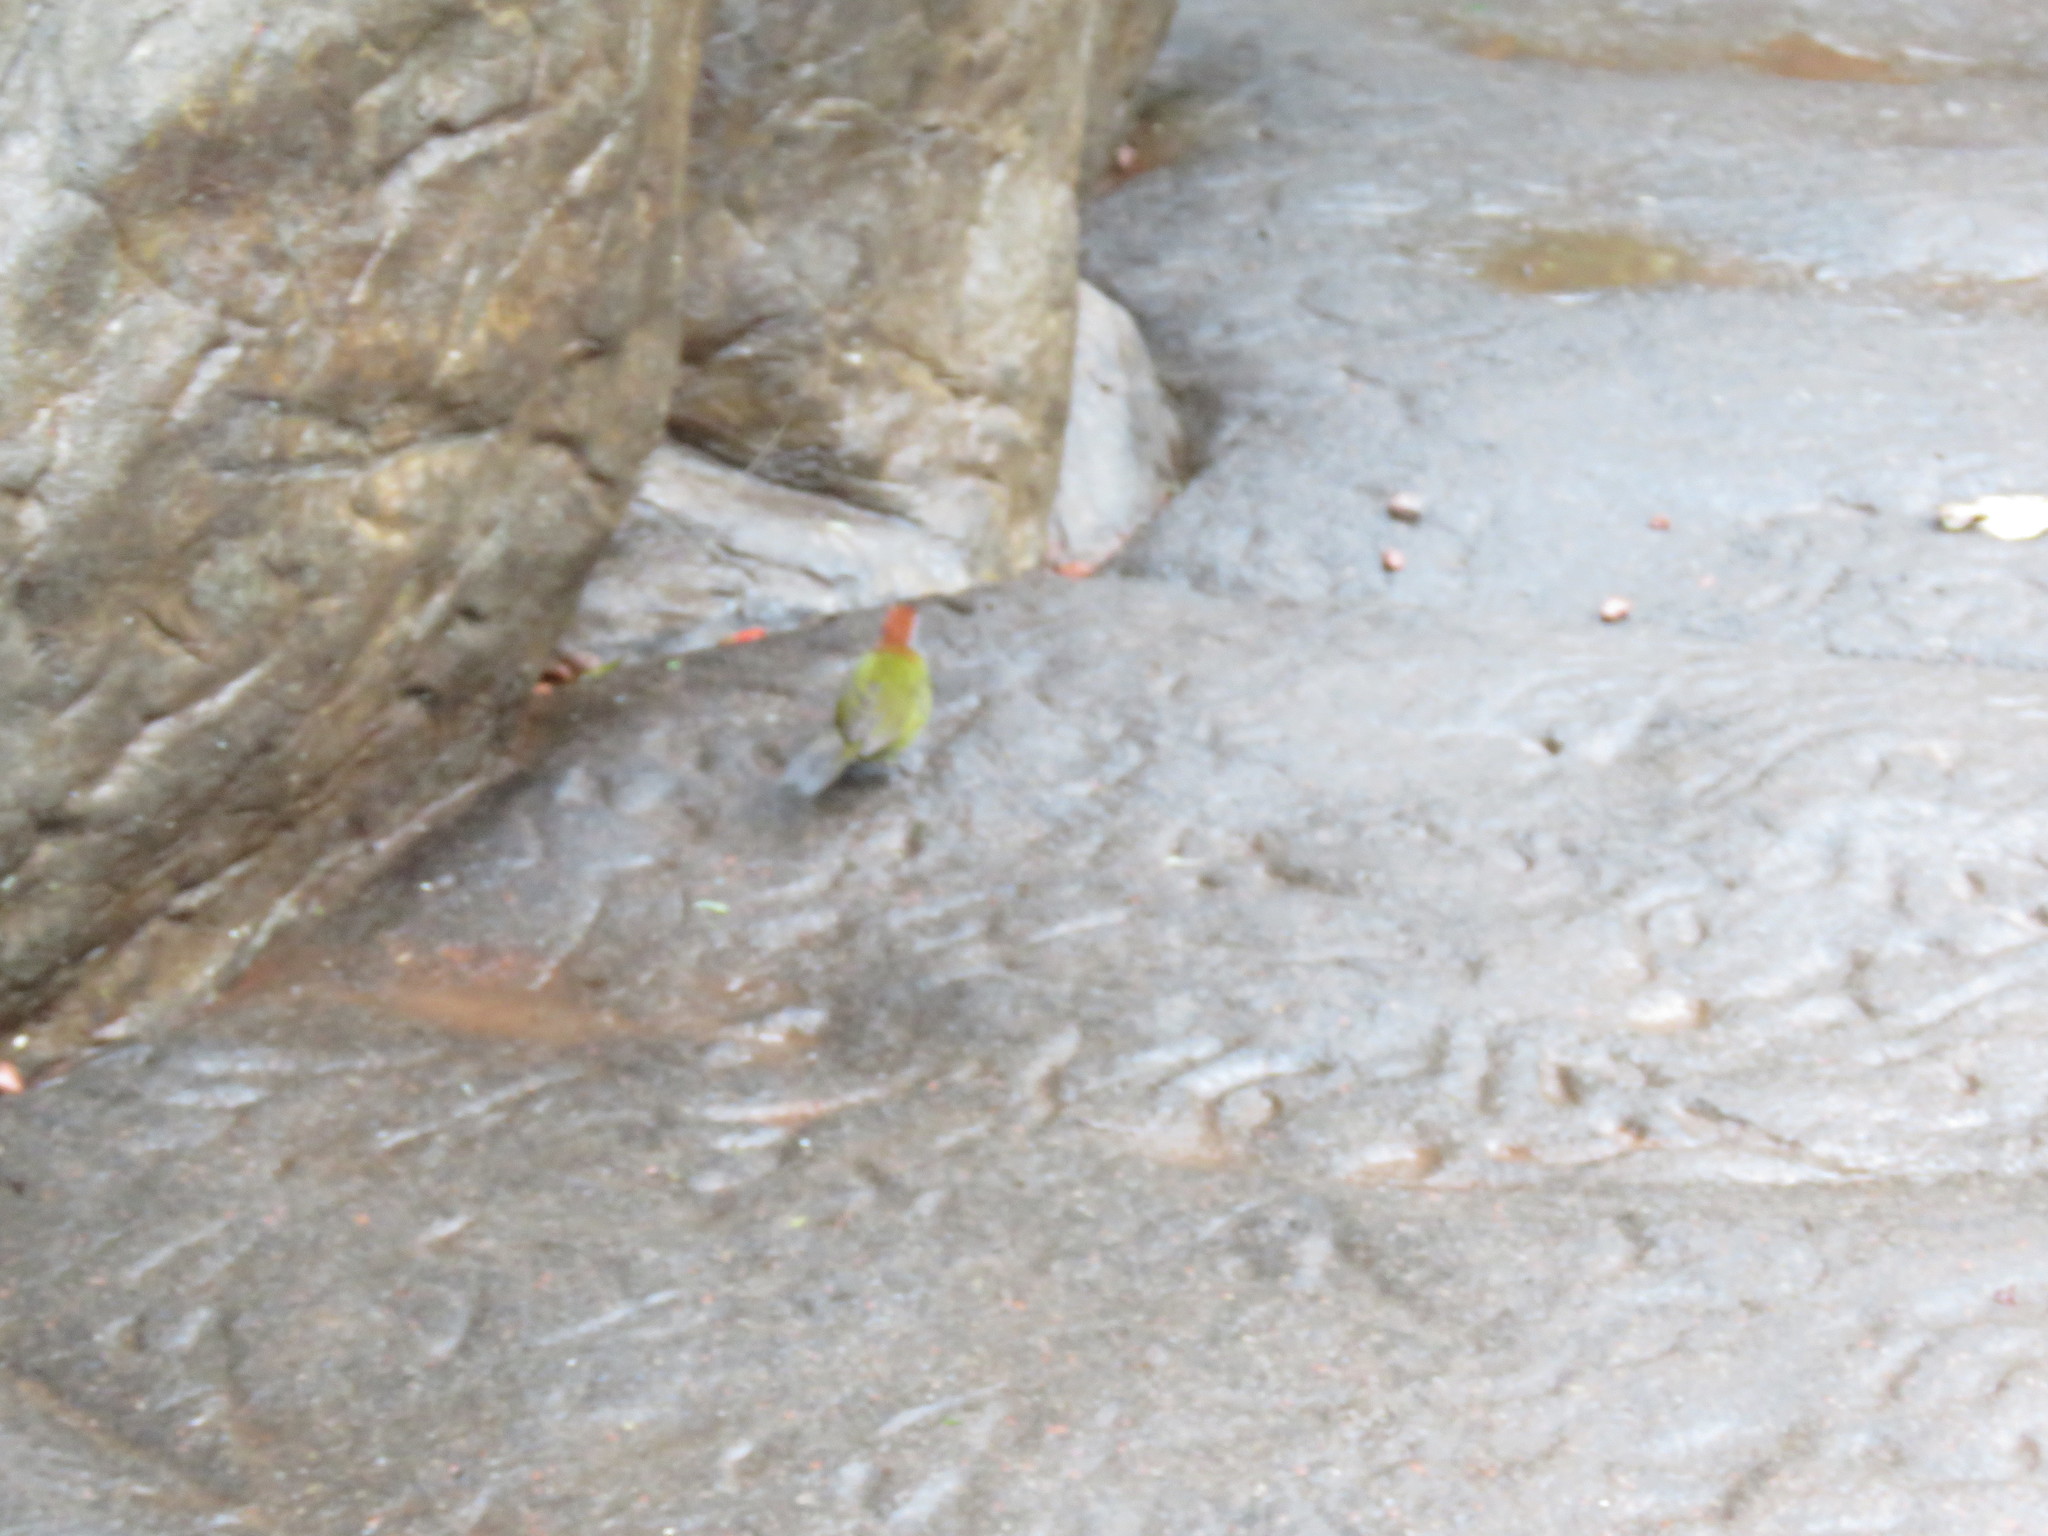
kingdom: Animalia
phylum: Chordata
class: Aves
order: Passeriformes
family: Passerellidae
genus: Arremon
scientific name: Arremon crassirostris
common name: Sooty-faced finch
